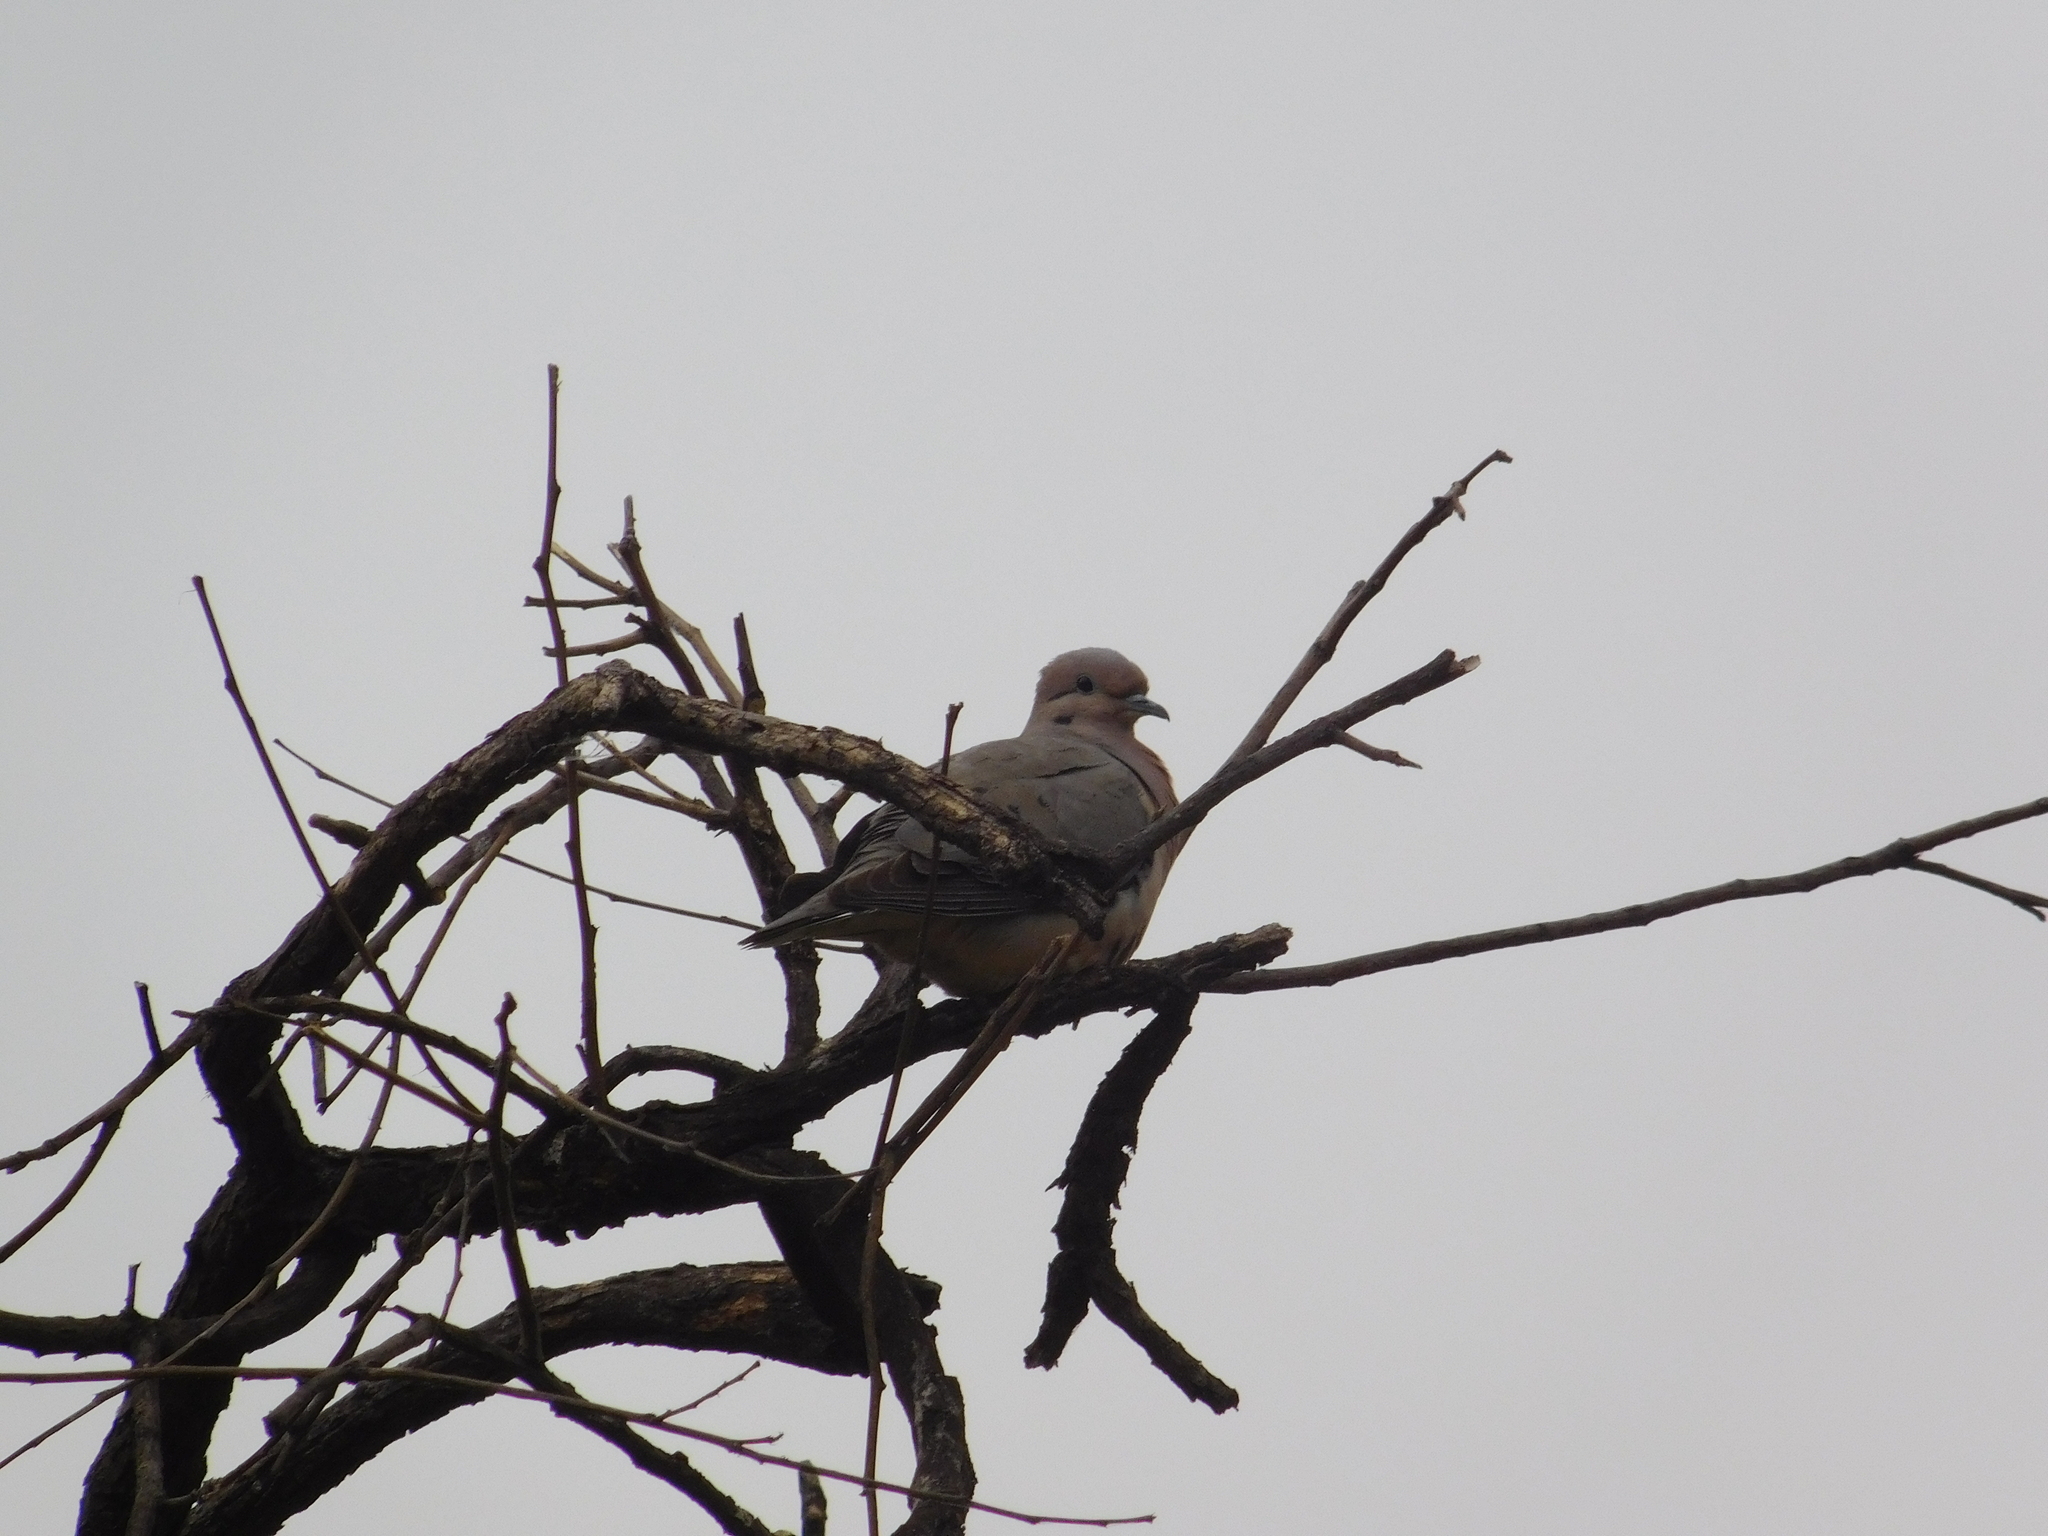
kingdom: Animalia
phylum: Chordata
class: Aves
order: Columbiformes
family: Columbidae
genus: Zenaida
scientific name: Zenaida auriculata
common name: Eared dove
